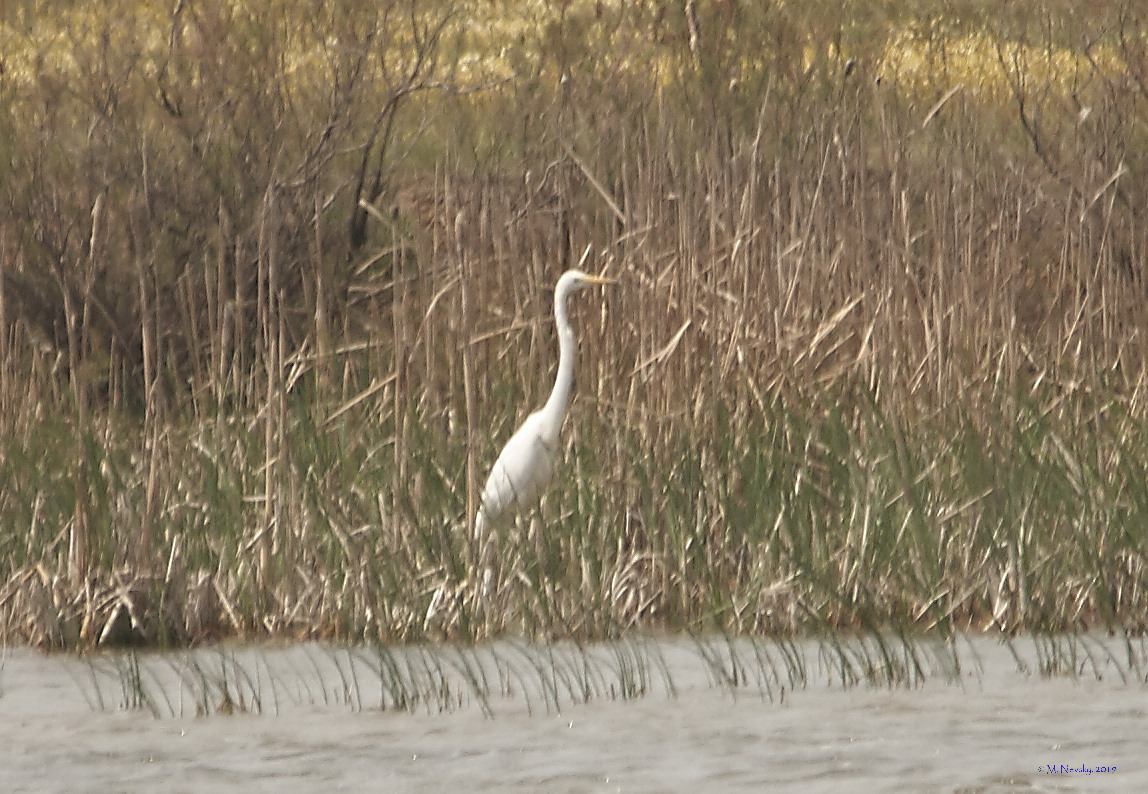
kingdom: Animalia
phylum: Chordata
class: Aves
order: Pelecaniformes
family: Ardeidae
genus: Ardea
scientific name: Ardea alba
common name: Great egret
